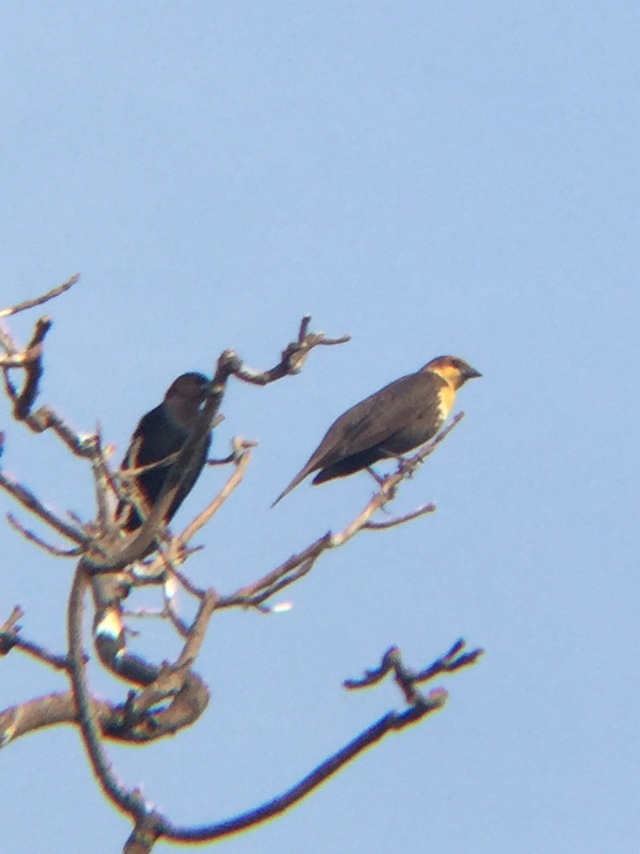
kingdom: Animalia
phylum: Chordata
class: Aves
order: Passeriformes
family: Icteridae
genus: Xanthocephalus
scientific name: Xanthocephalus xanthocephalus
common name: Yellow-headed blackbird
